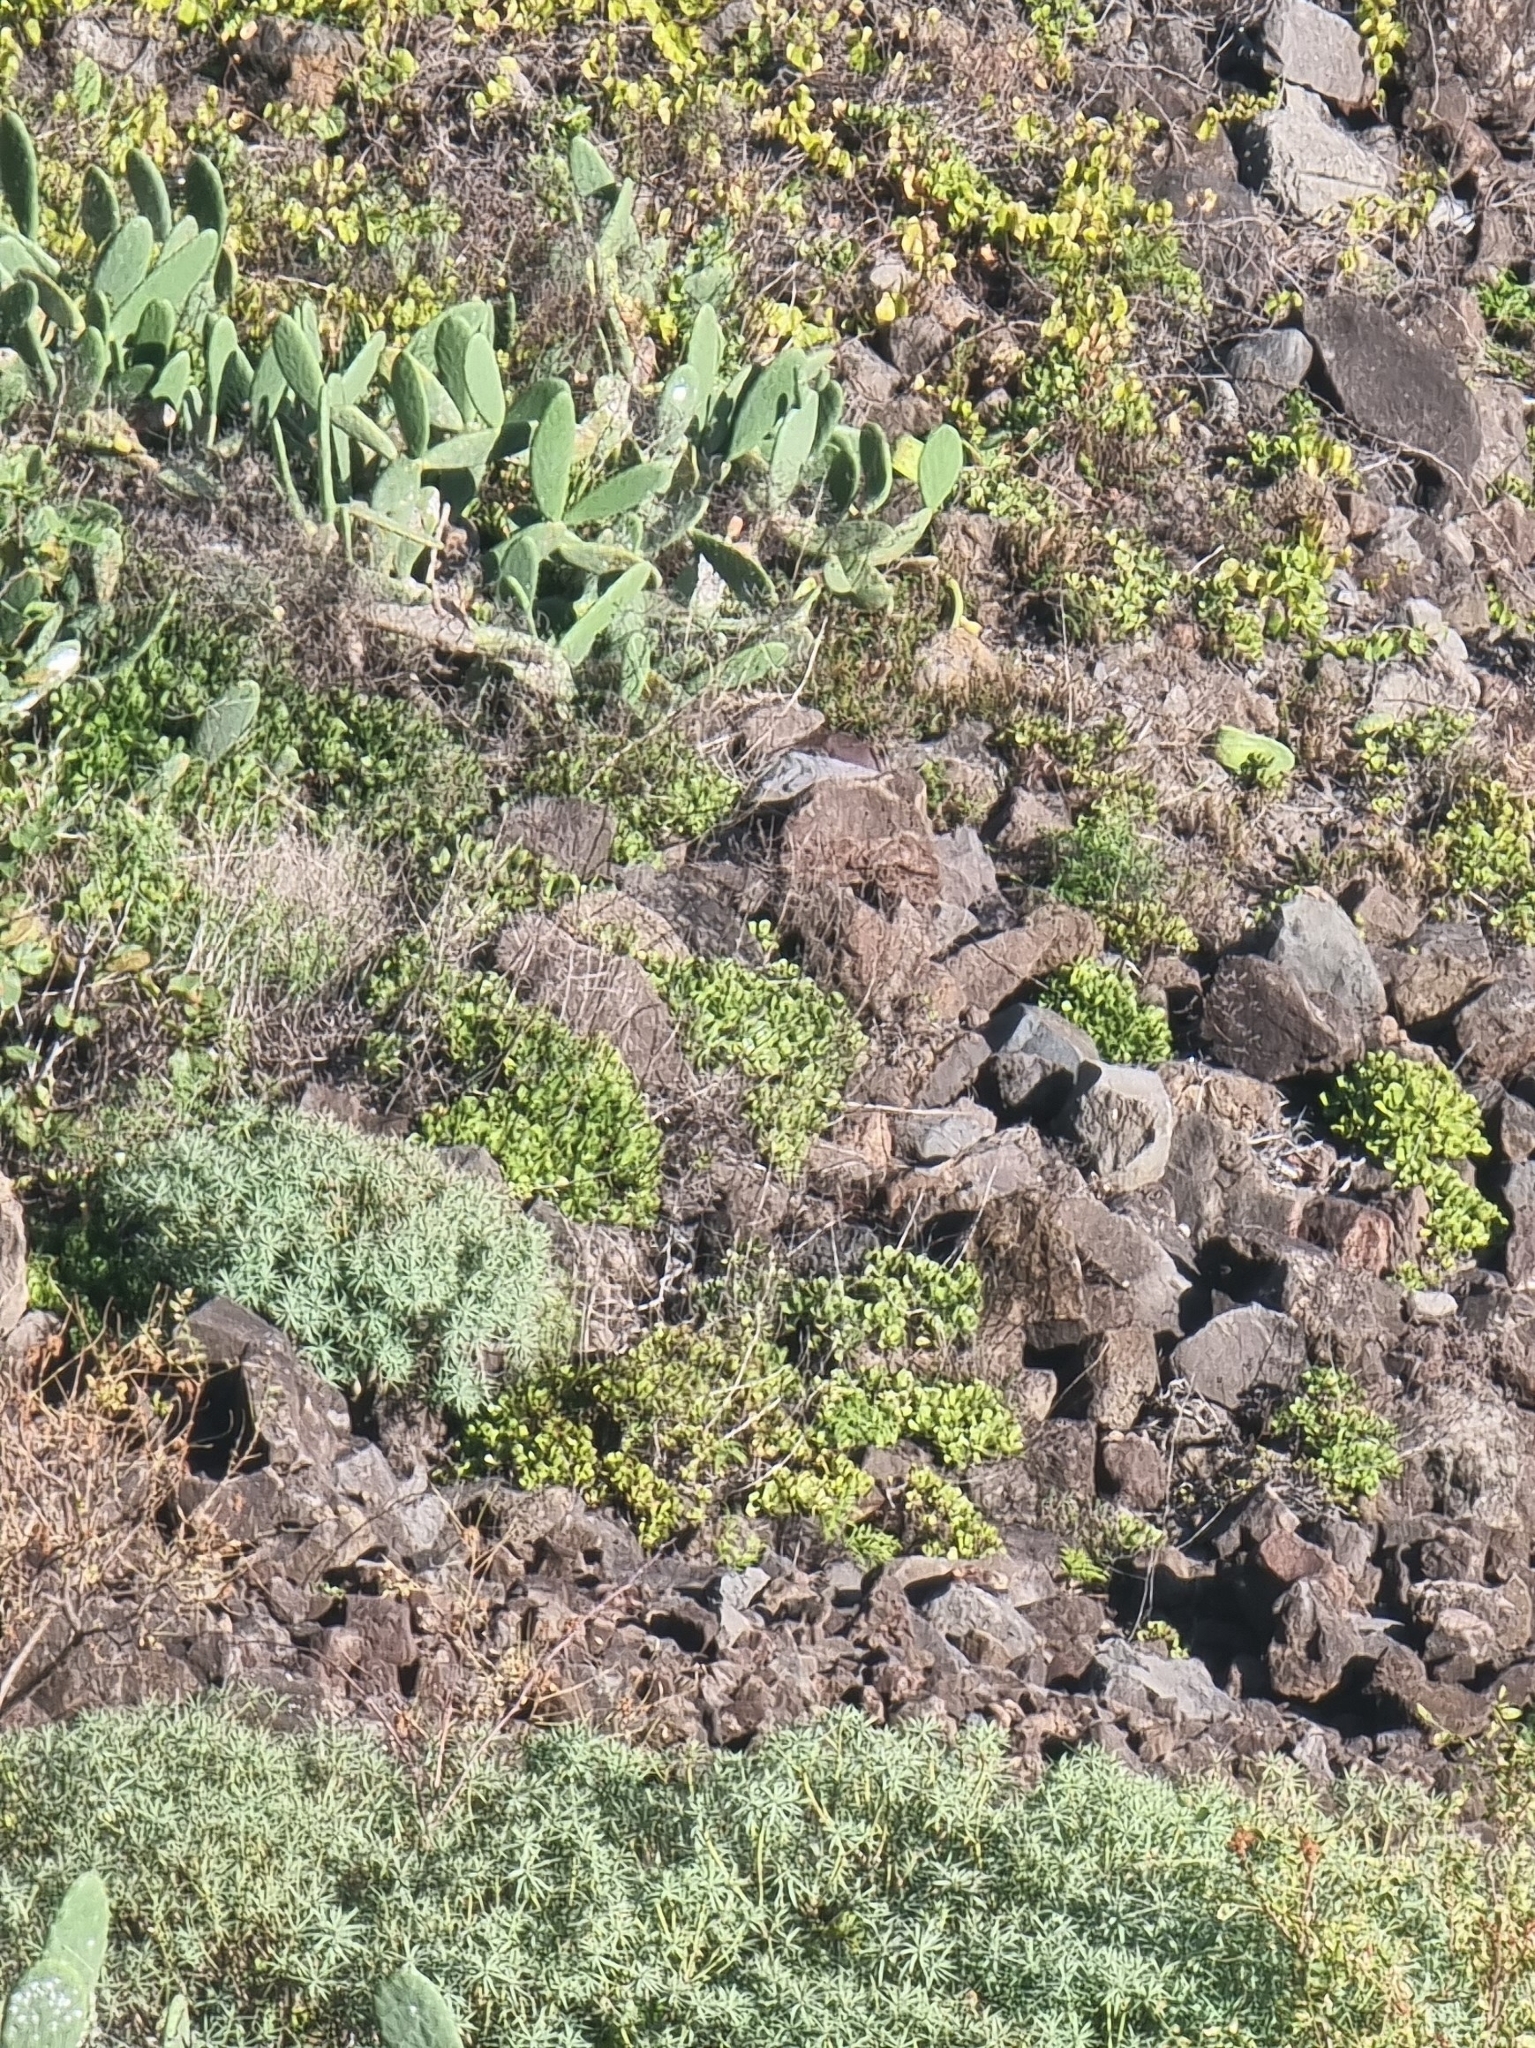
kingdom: Plantae
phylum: Tracheophyta
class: Magnoliopsida
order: Malpighiales
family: Euphorbiaceae
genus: Euphorbia
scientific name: Euphorbia piscatoria
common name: Fish-stunning spurge
